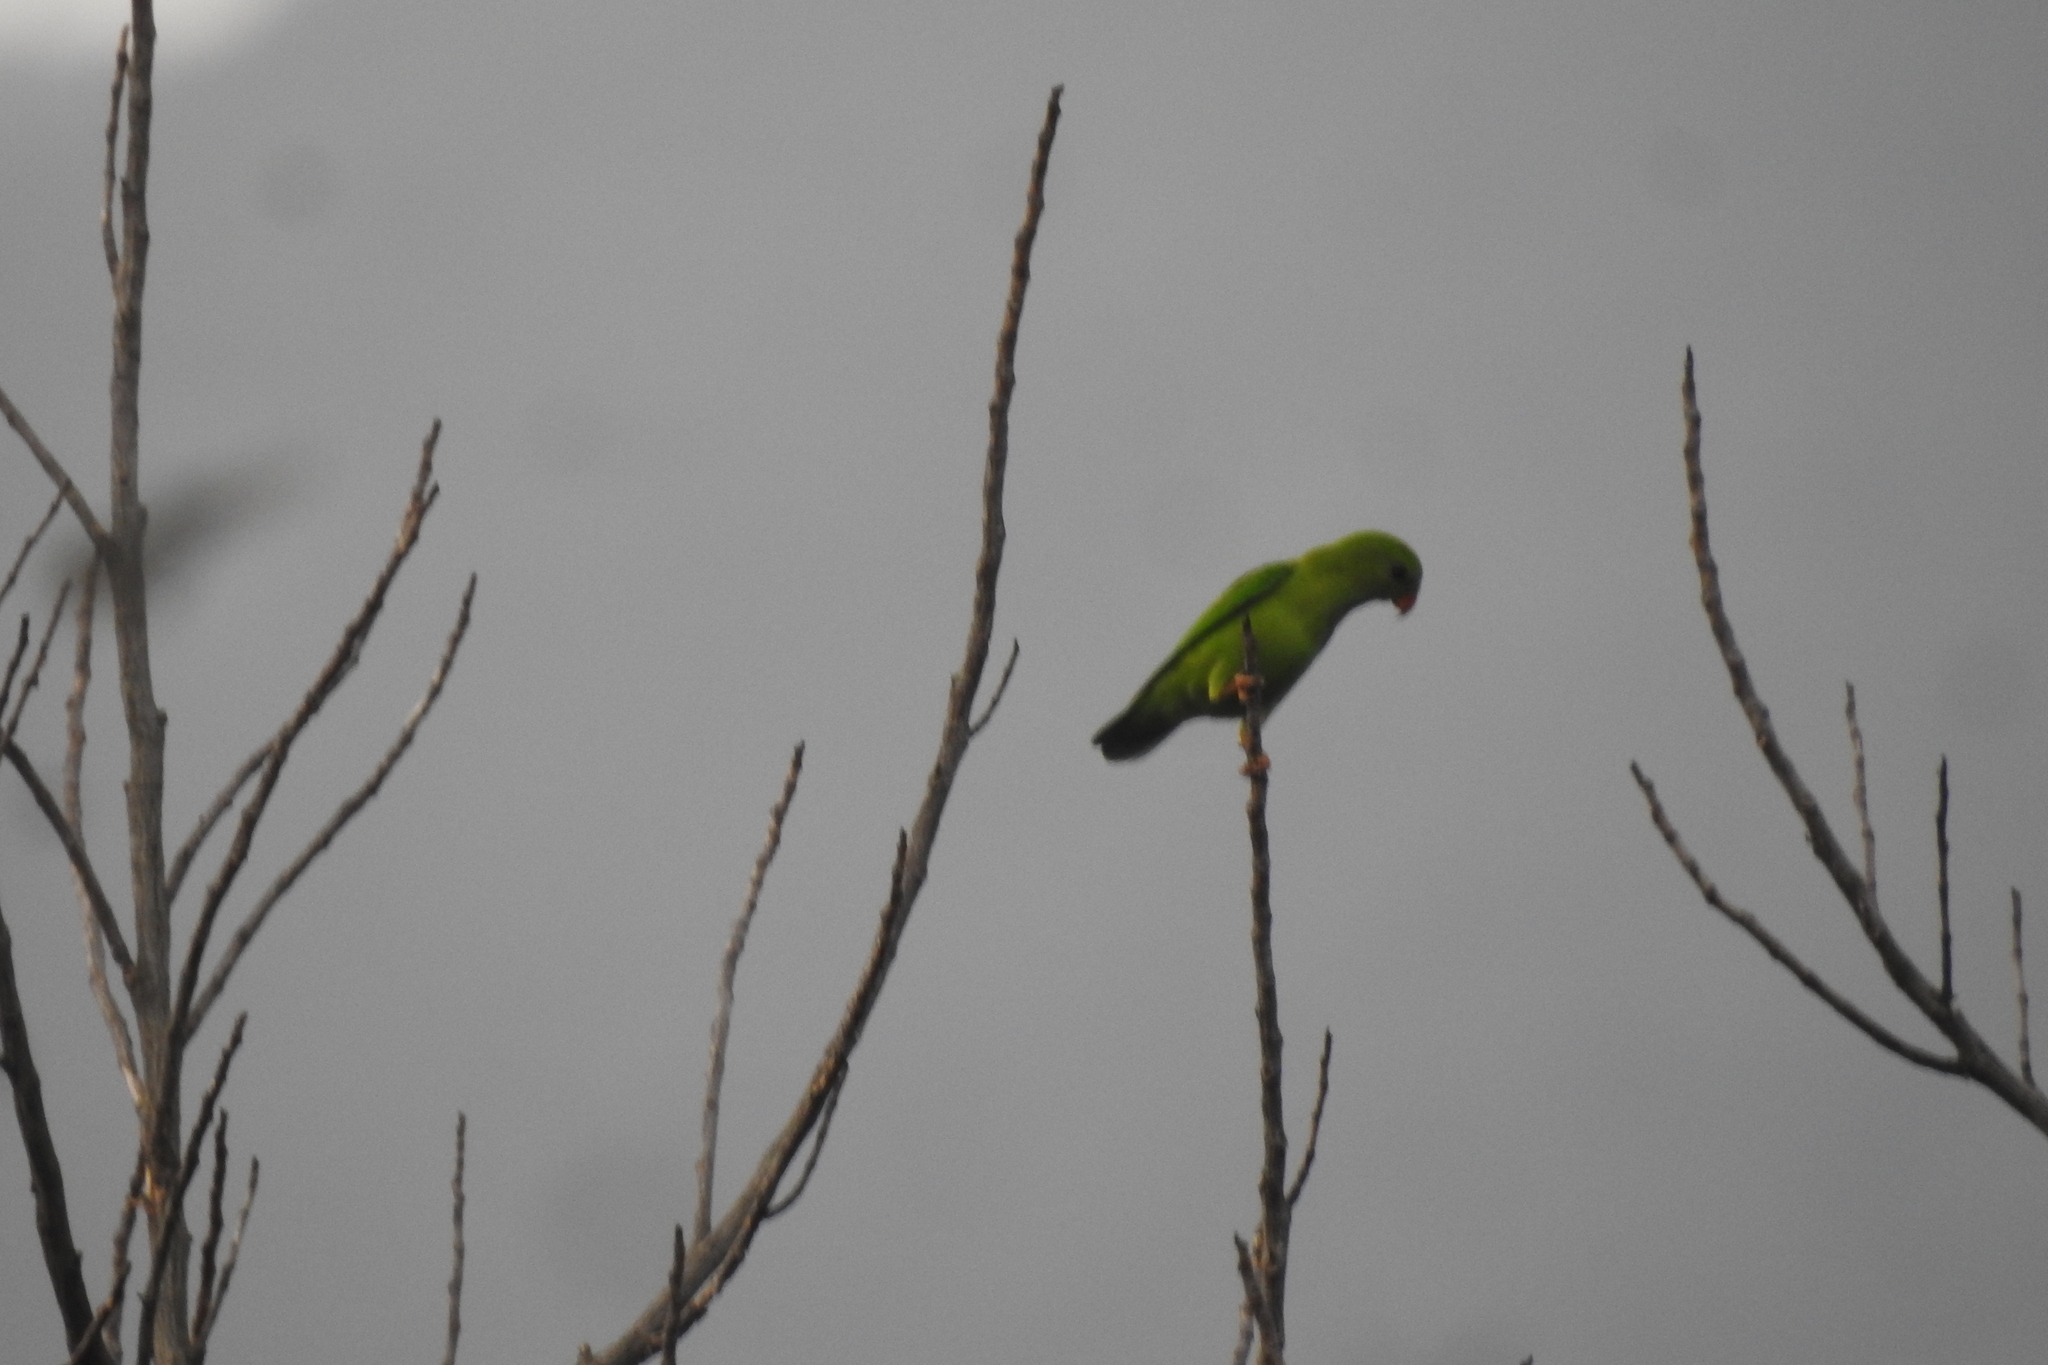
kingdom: Animalia
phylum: Chordata
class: Aves
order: Psittaciformes
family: Psittacidae
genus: Loriculus
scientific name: Loriculus vernalis
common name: Vernal hanging parrot
